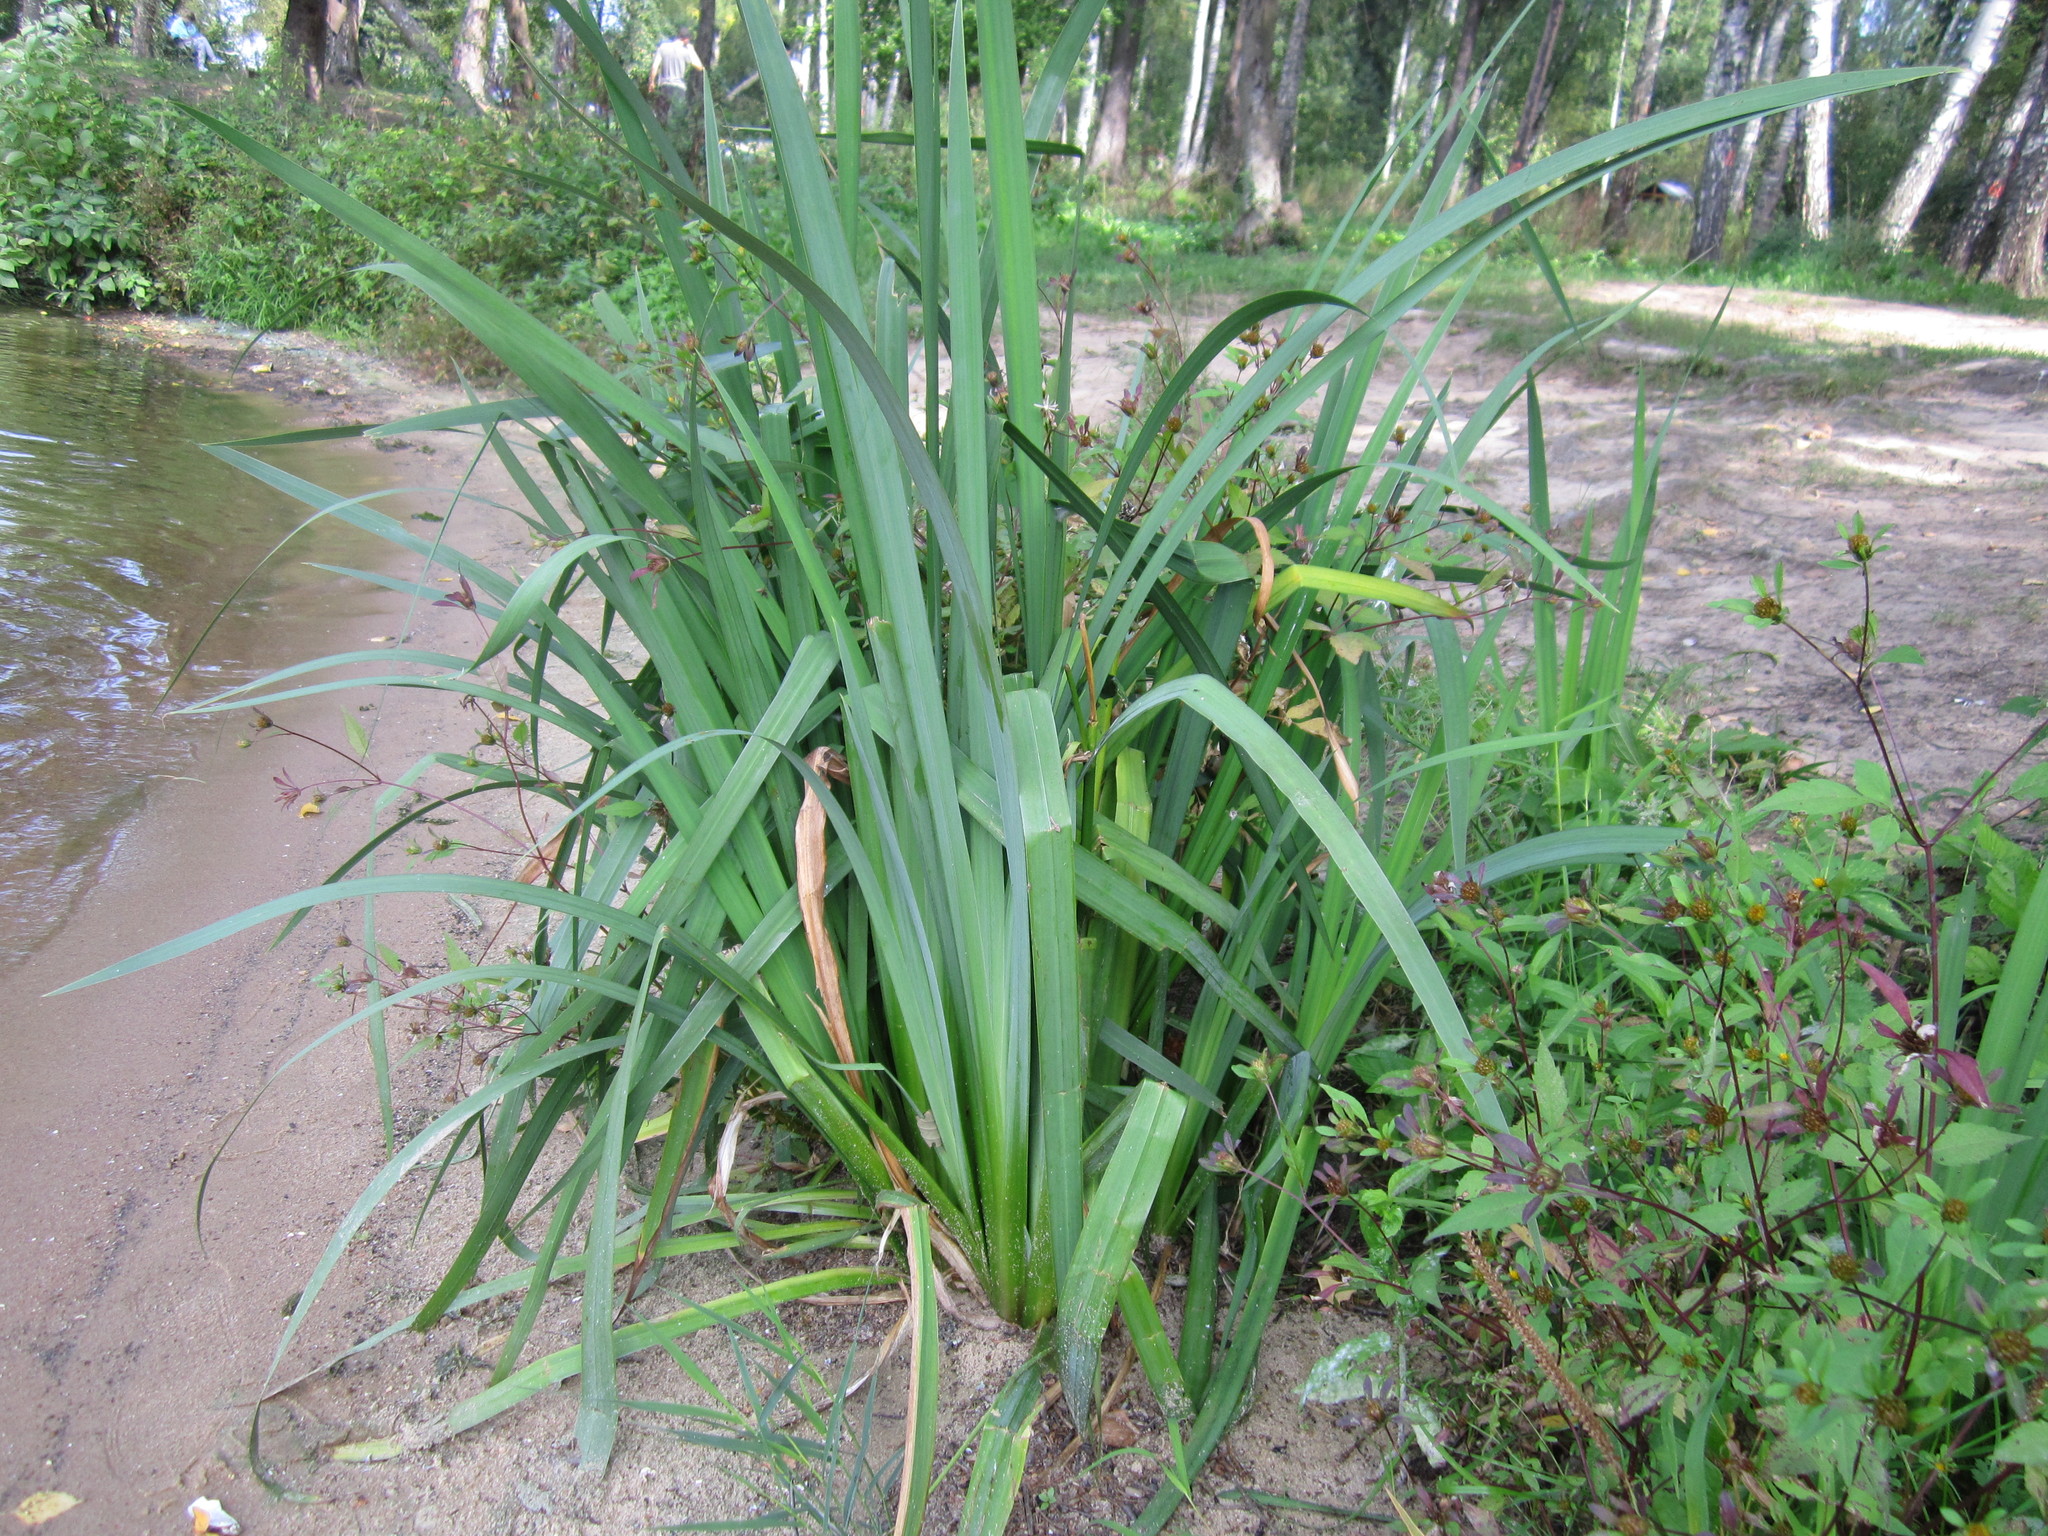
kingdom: Plantae
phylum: Tracheophyta
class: Liliopsida
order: Acorales
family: Acoraceae
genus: Acorus
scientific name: Acorus calamus
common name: Sweet-flag
